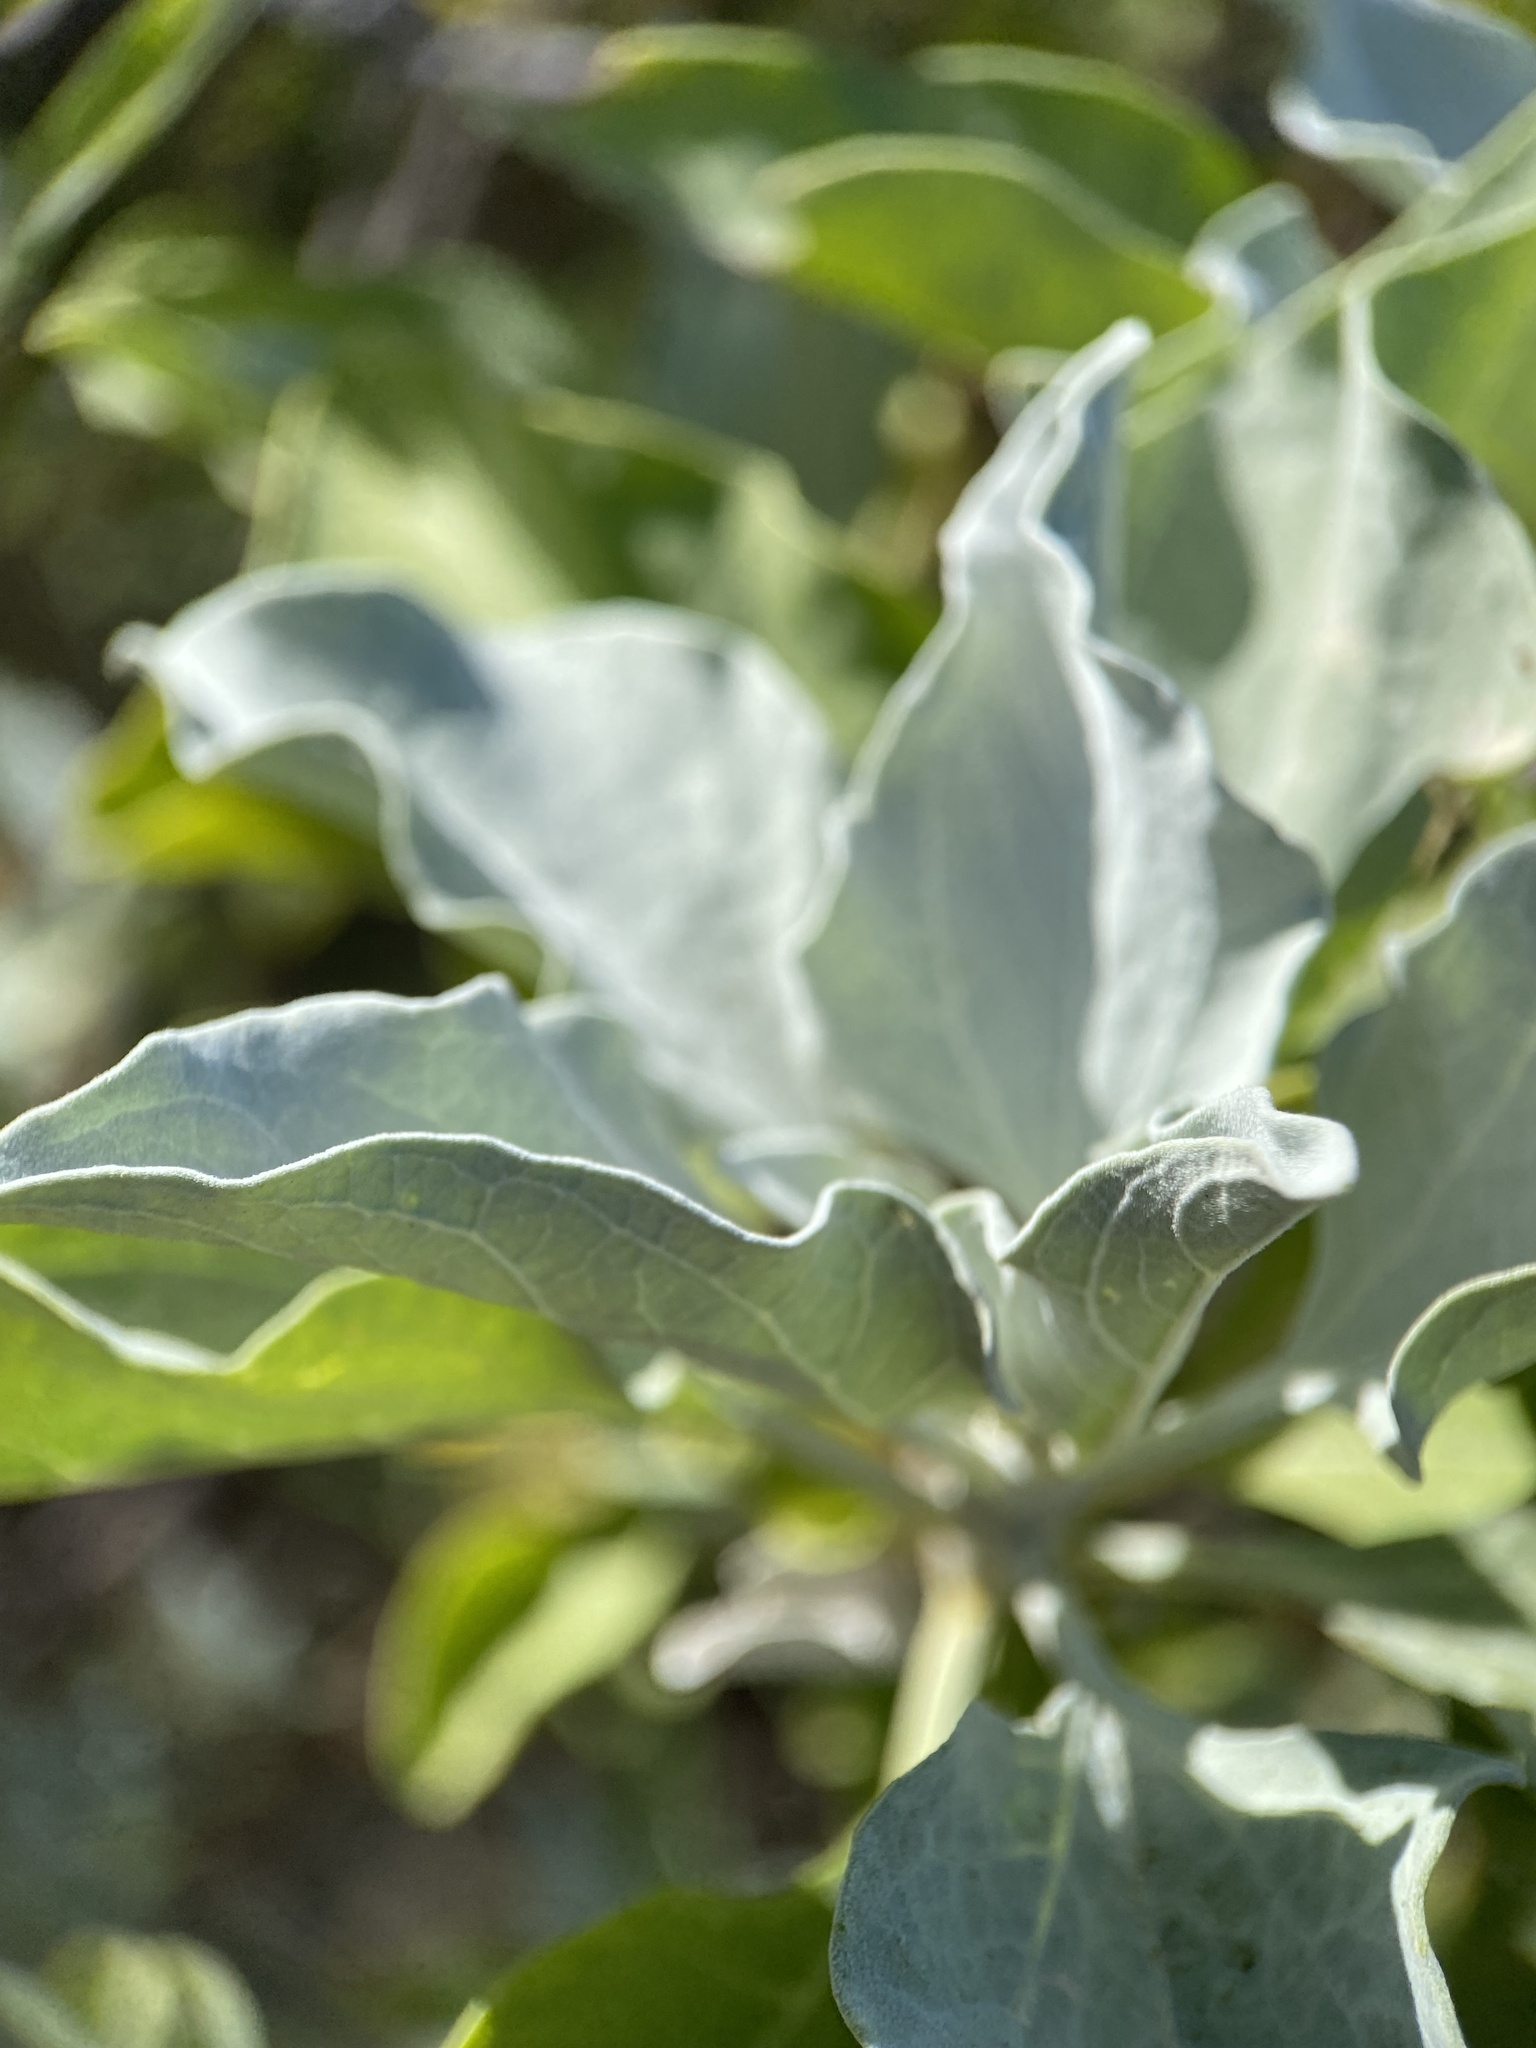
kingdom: Plantae
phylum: Tracheophyta
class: Magnoliopsida
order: Asterales
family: Asteraceae
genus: Encelia
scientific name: Encelia farinosa
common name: Brittlebush
